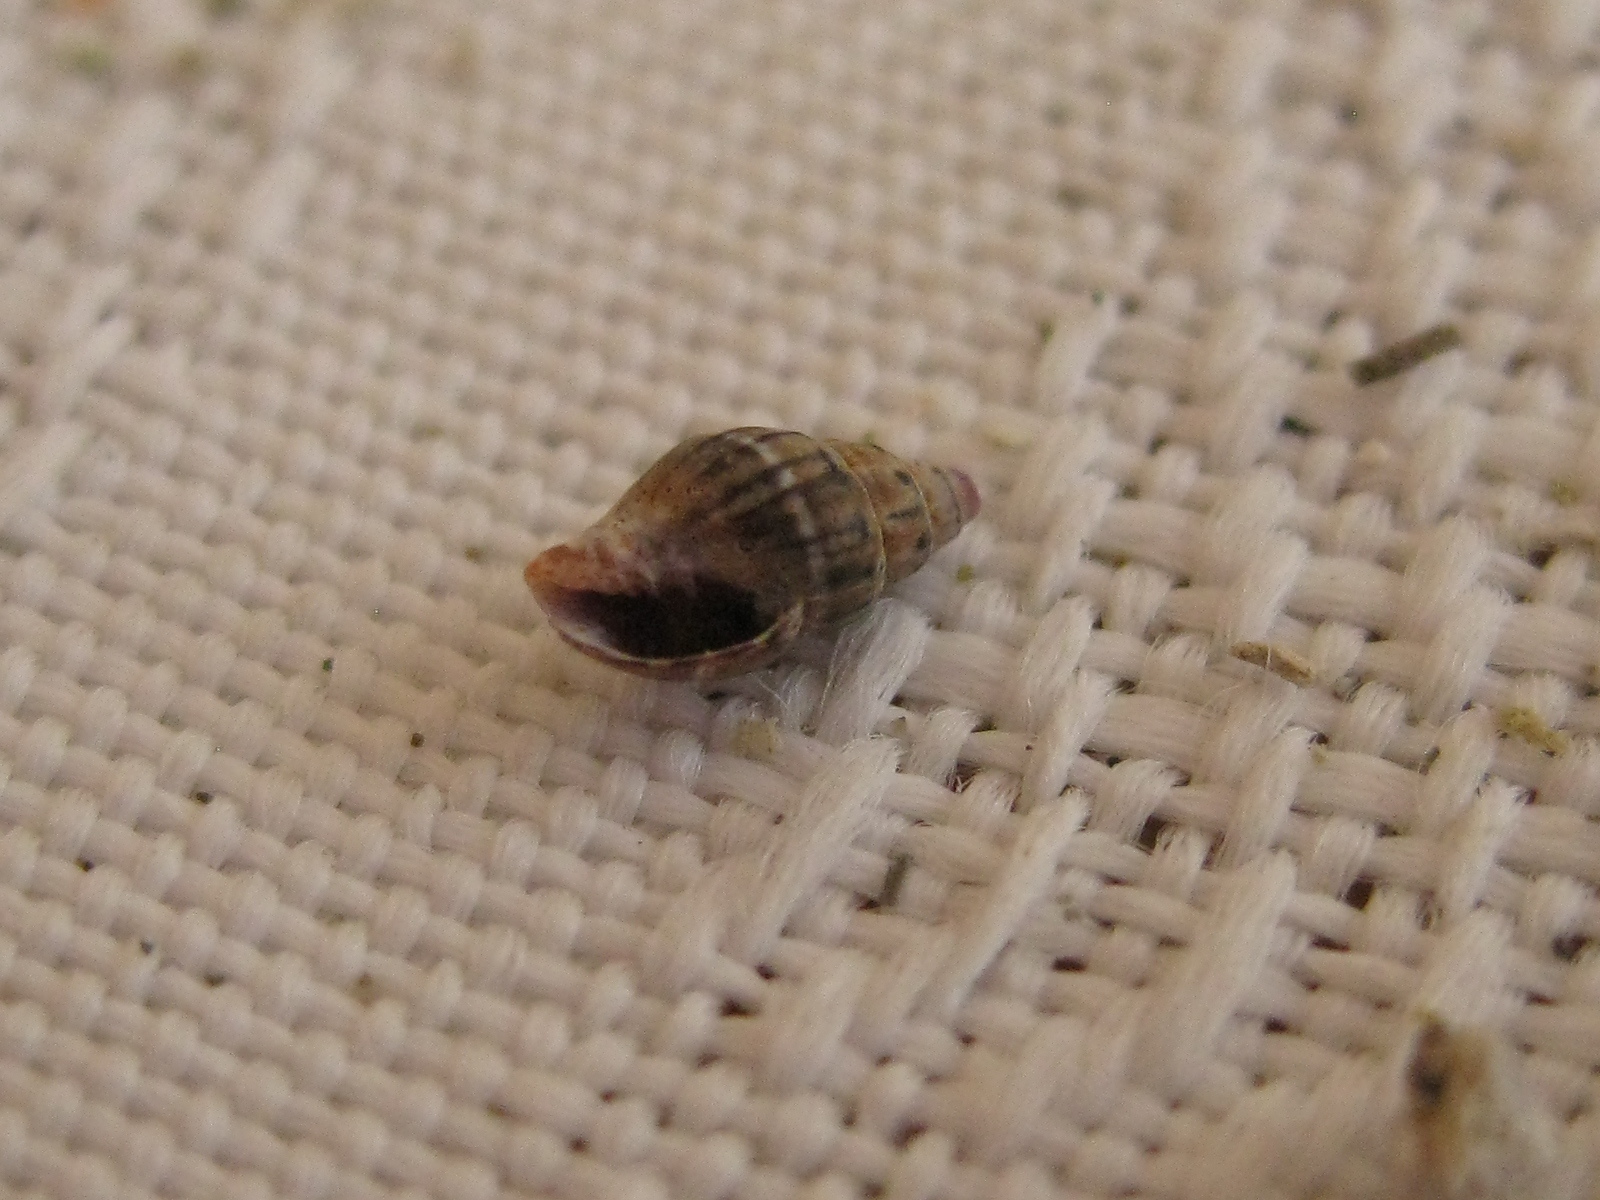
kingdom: Animalia
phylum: Mollusca
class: Gastropoda
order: Neogastropoda
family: Costellariidae
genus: Austromitra
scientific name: Austromitra rubiginosa
